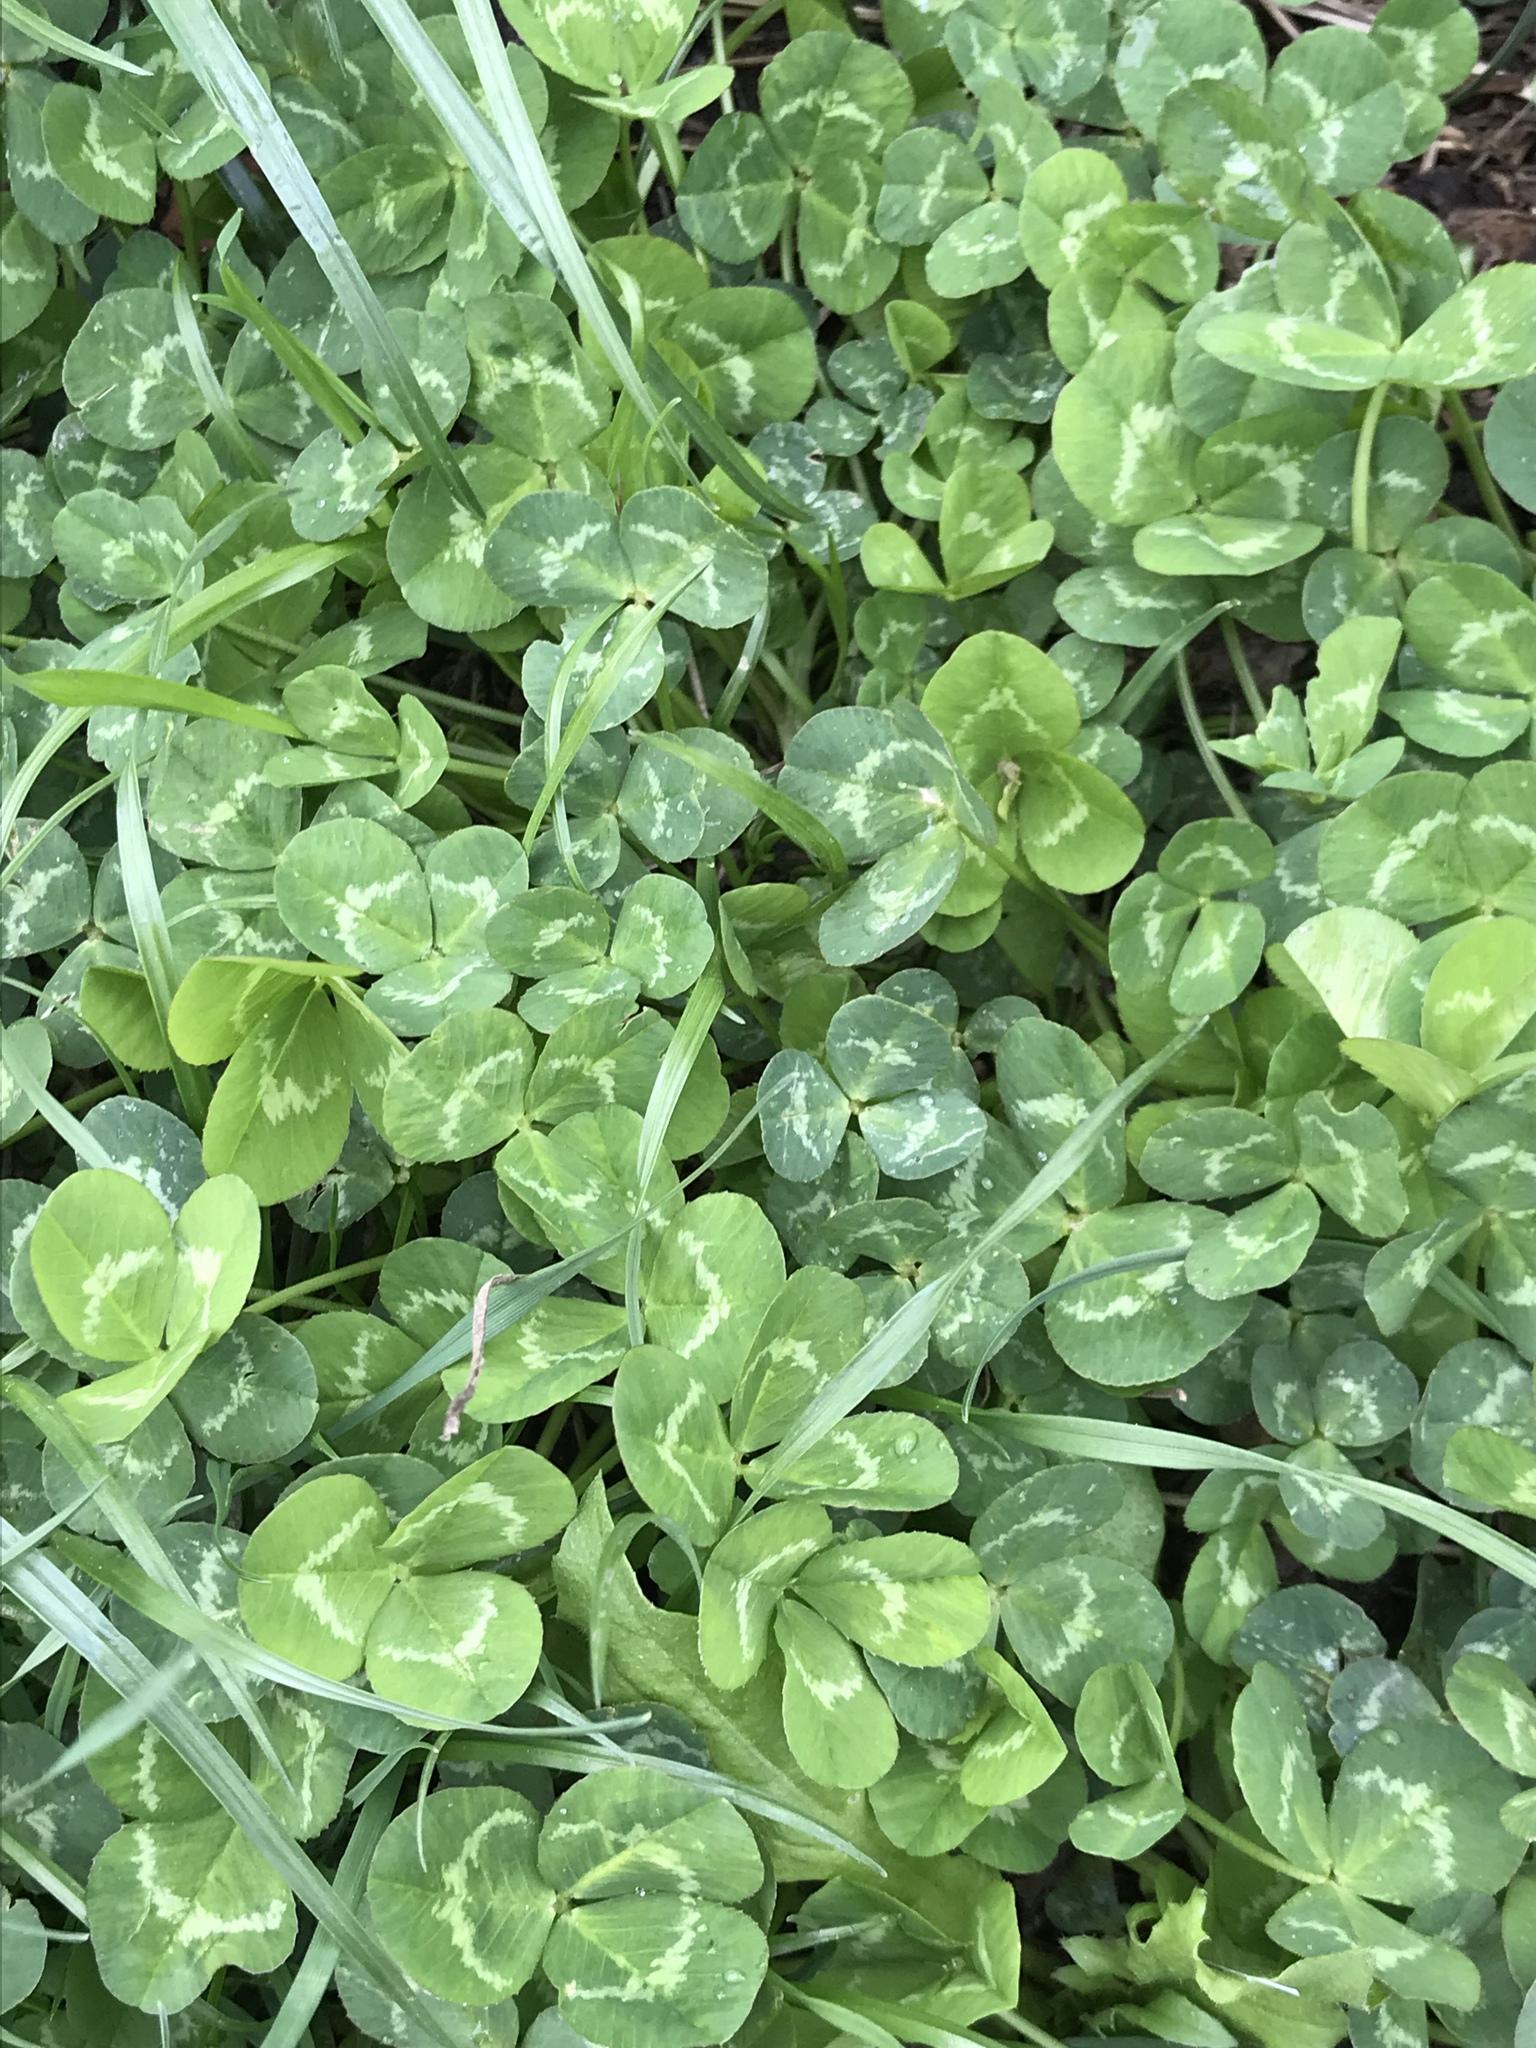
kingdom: Plantae
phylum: Tracheophyta
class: Magnoliopsida
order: Fabales
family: Fabaceae
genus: Trifolium
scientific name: Trifolium repens
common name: White clover
